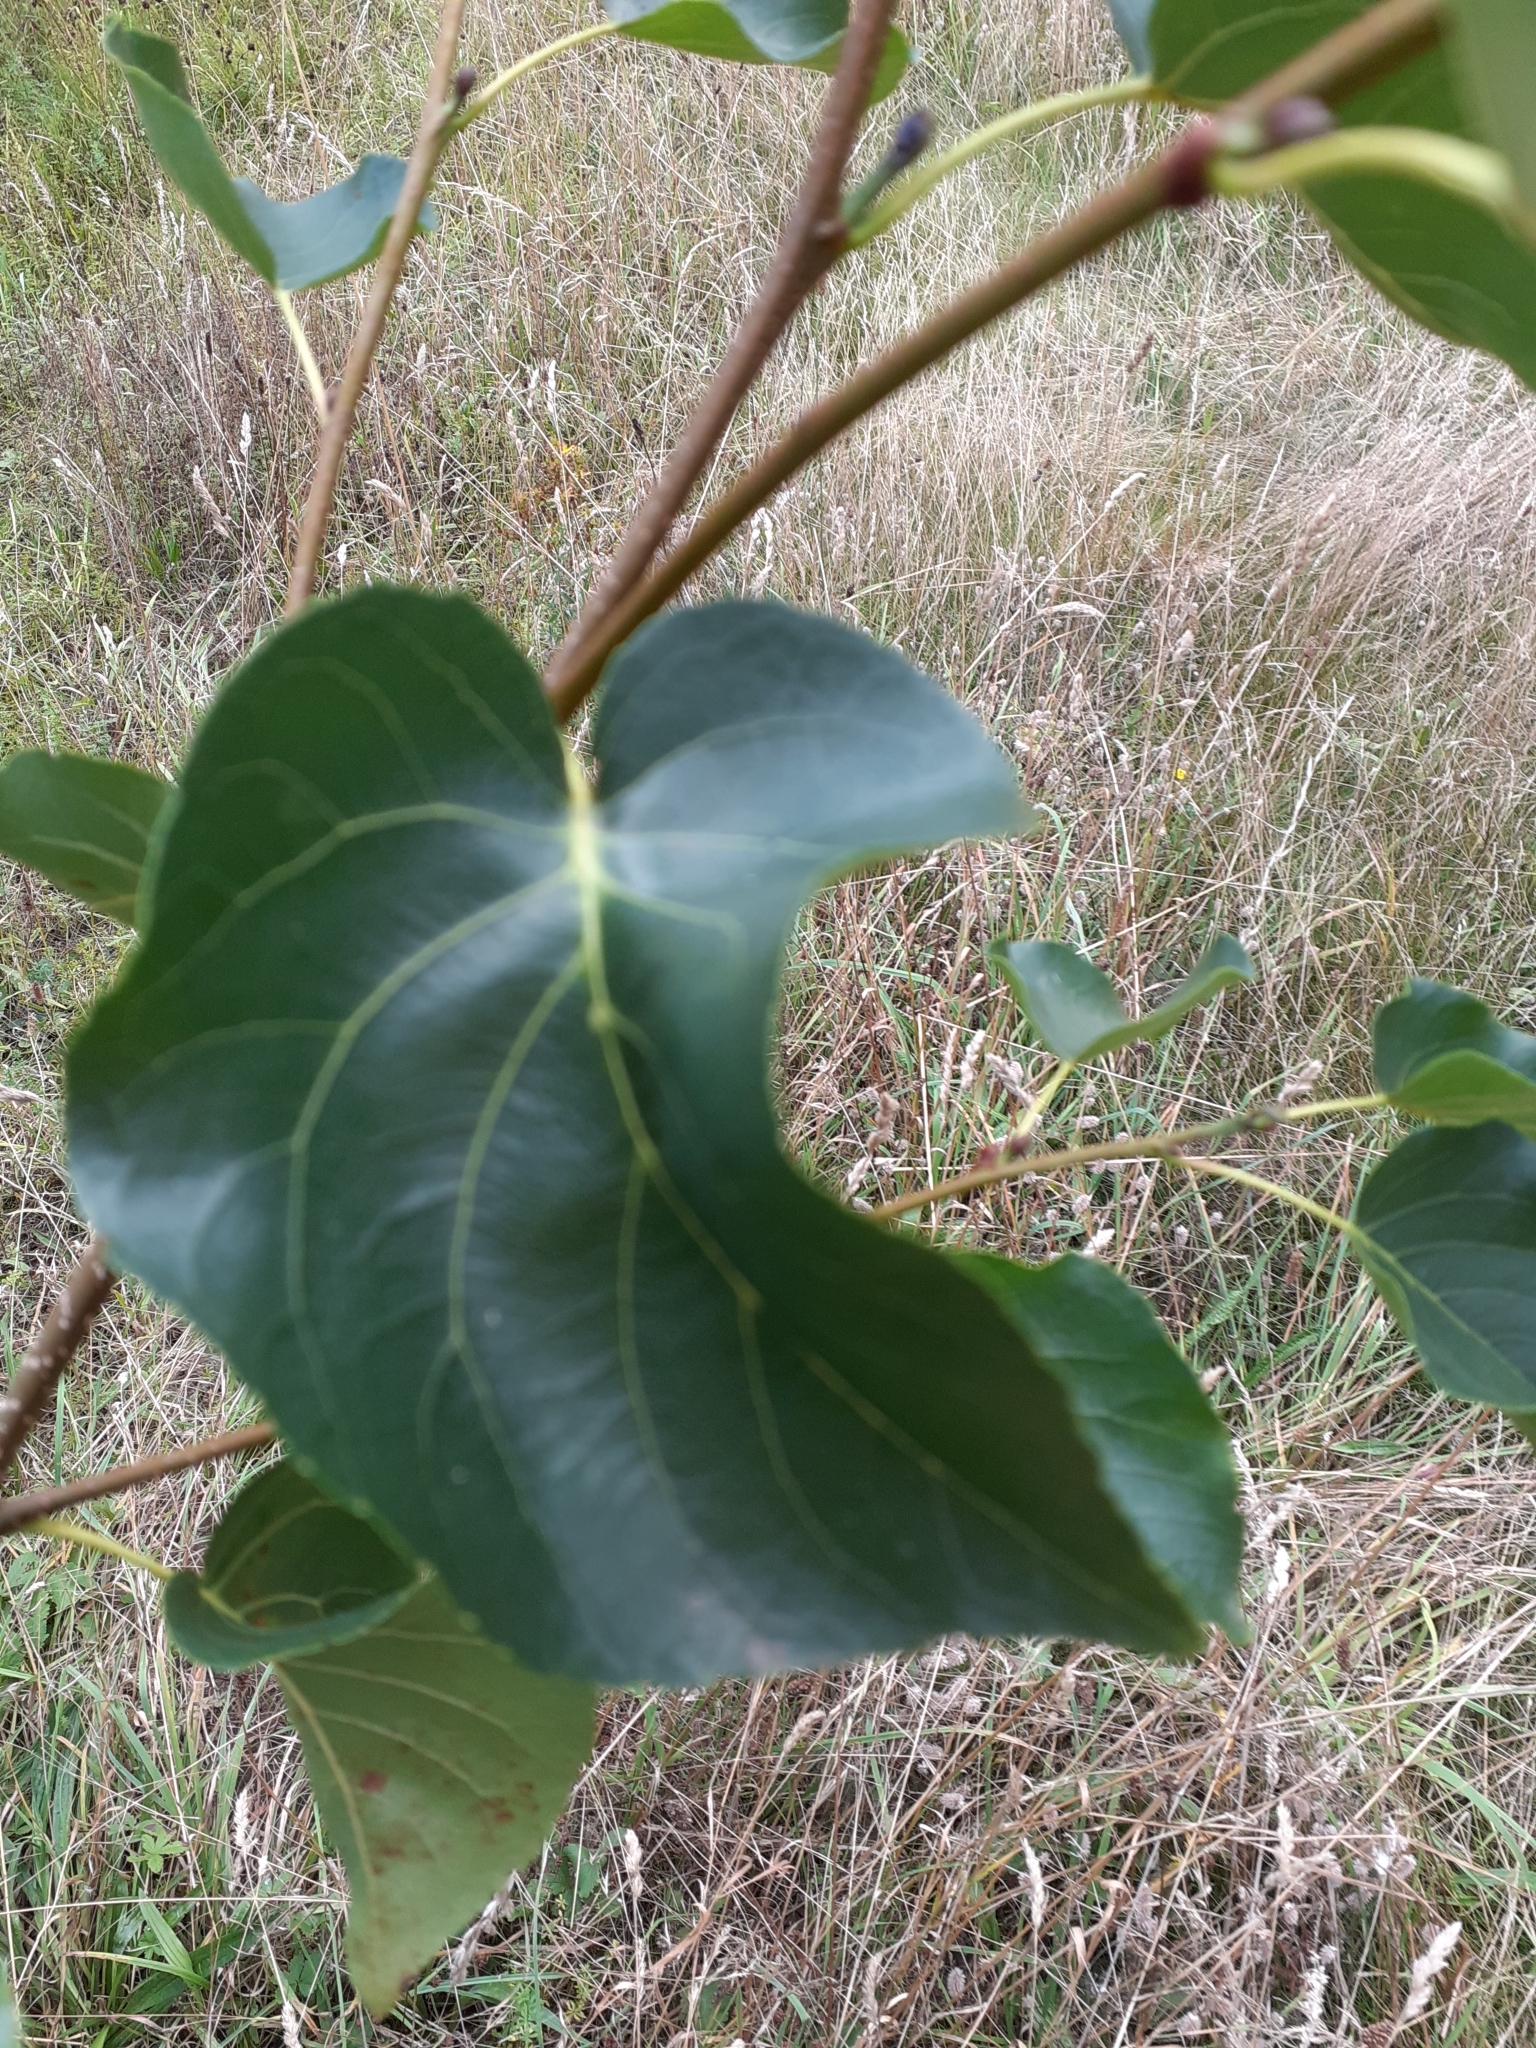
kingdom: Plantae
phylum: Tracheophyta
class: Magnoliopsida
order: Fagales
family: Betulaceae
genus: Alnus
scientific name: Alnus cordata
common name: Italian alder
